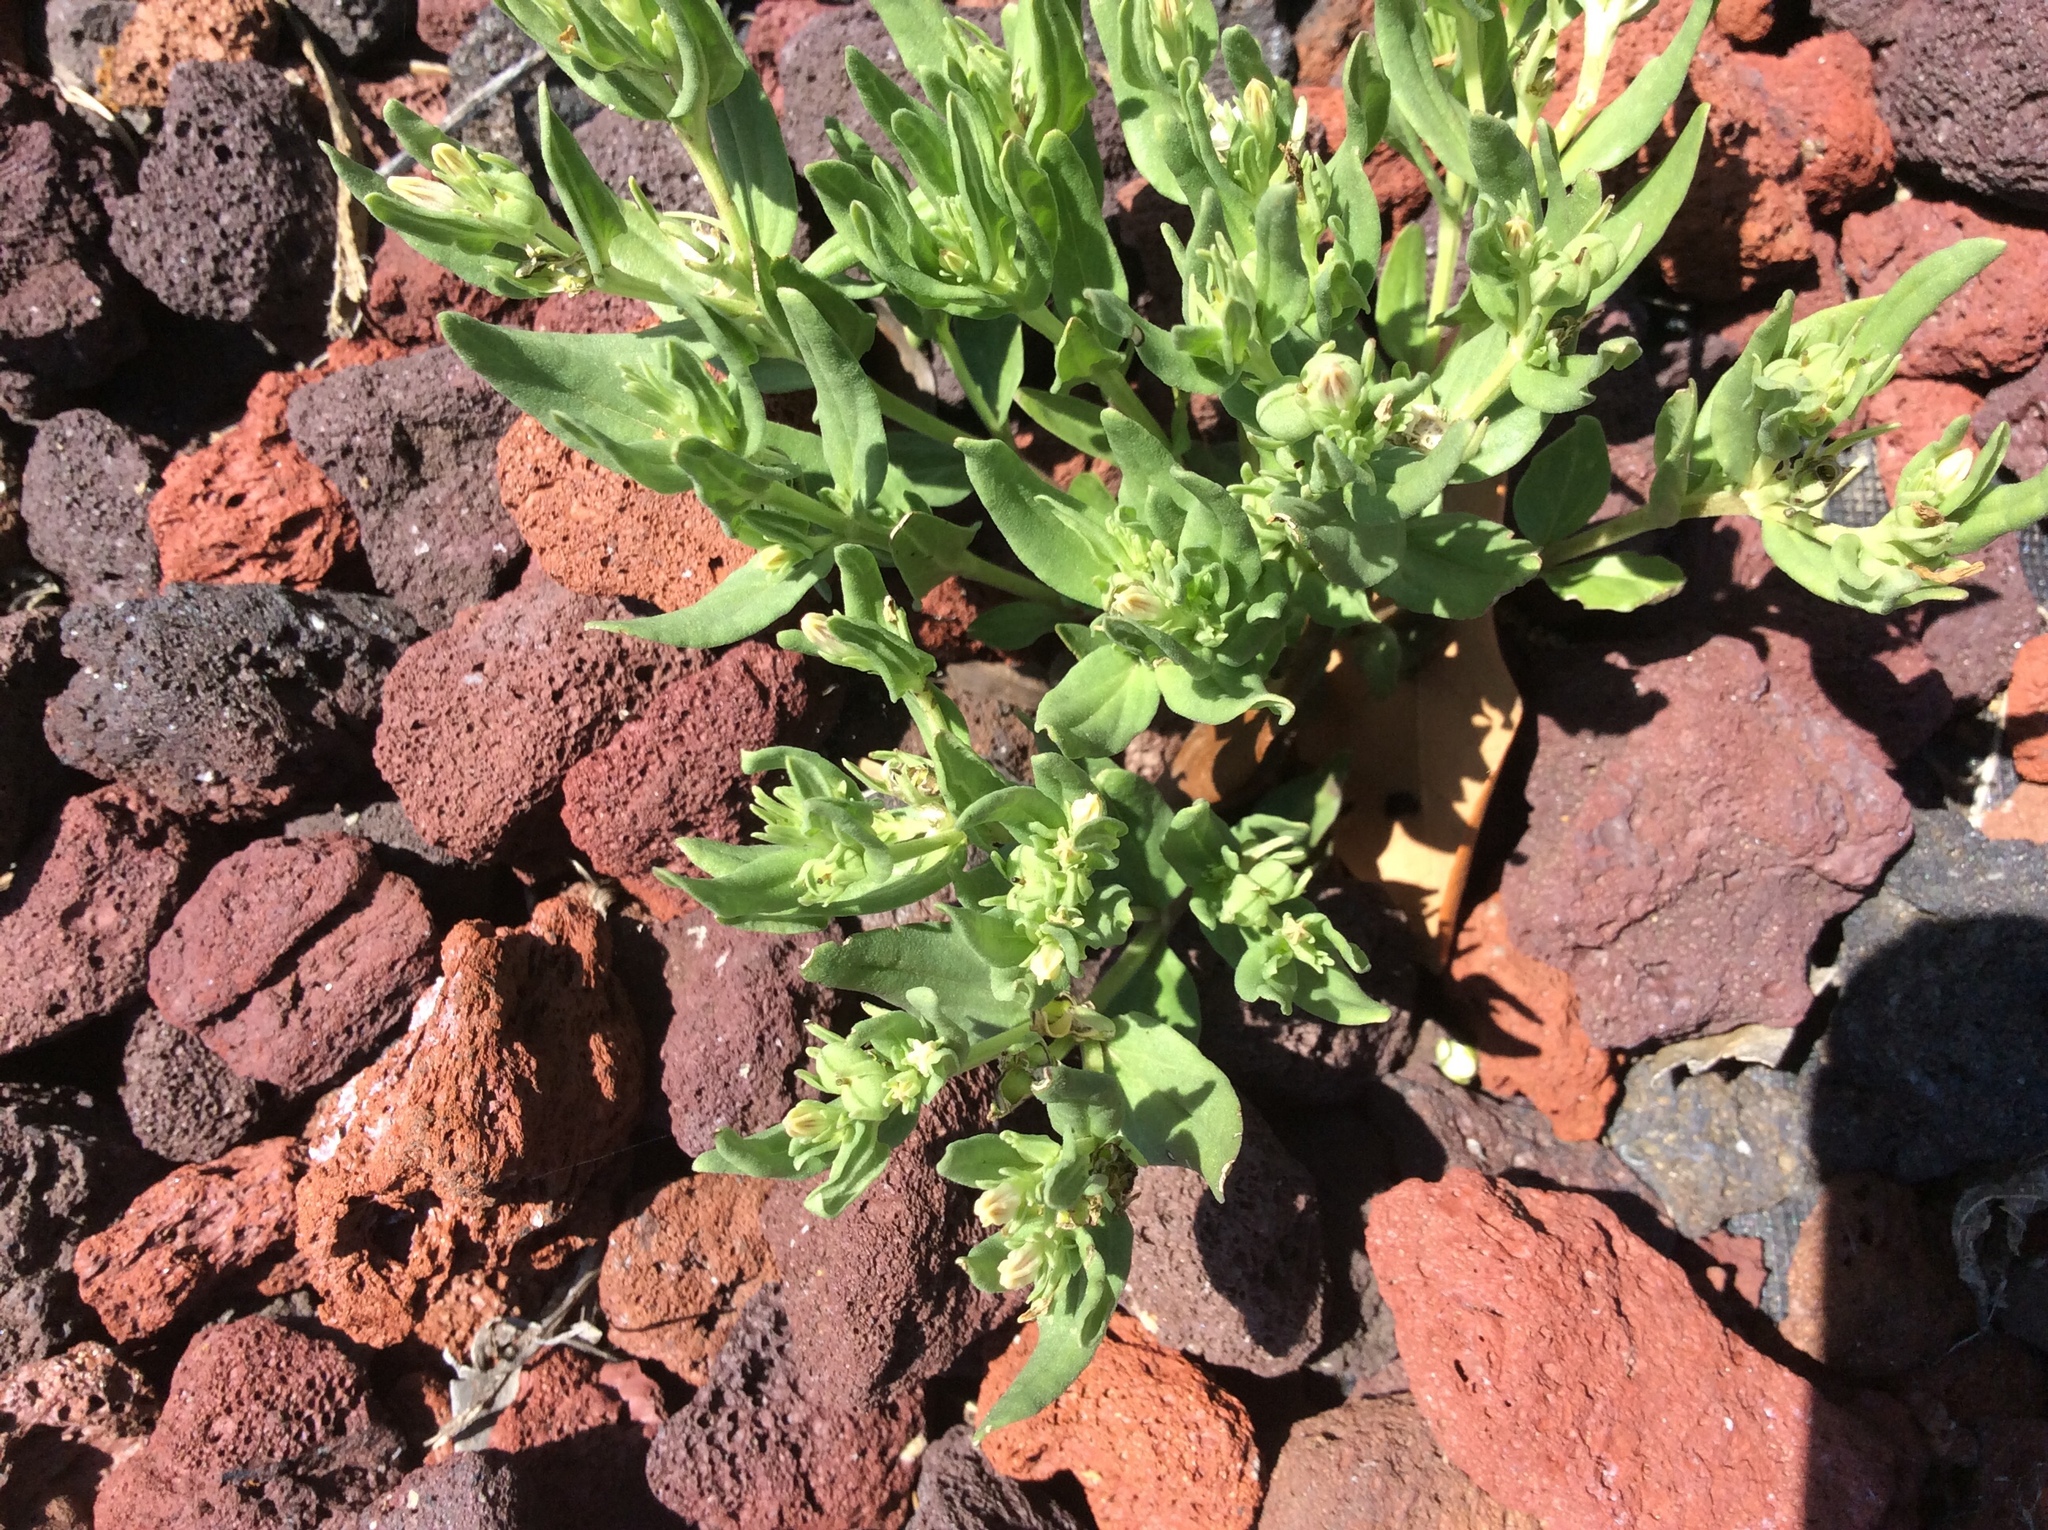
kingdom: Plantae
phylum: Tracheophyta
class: Magnoliopsida
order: Gentianales
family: Loganiaceae
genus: Spigelia
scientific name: Spigelia hedyotidea
